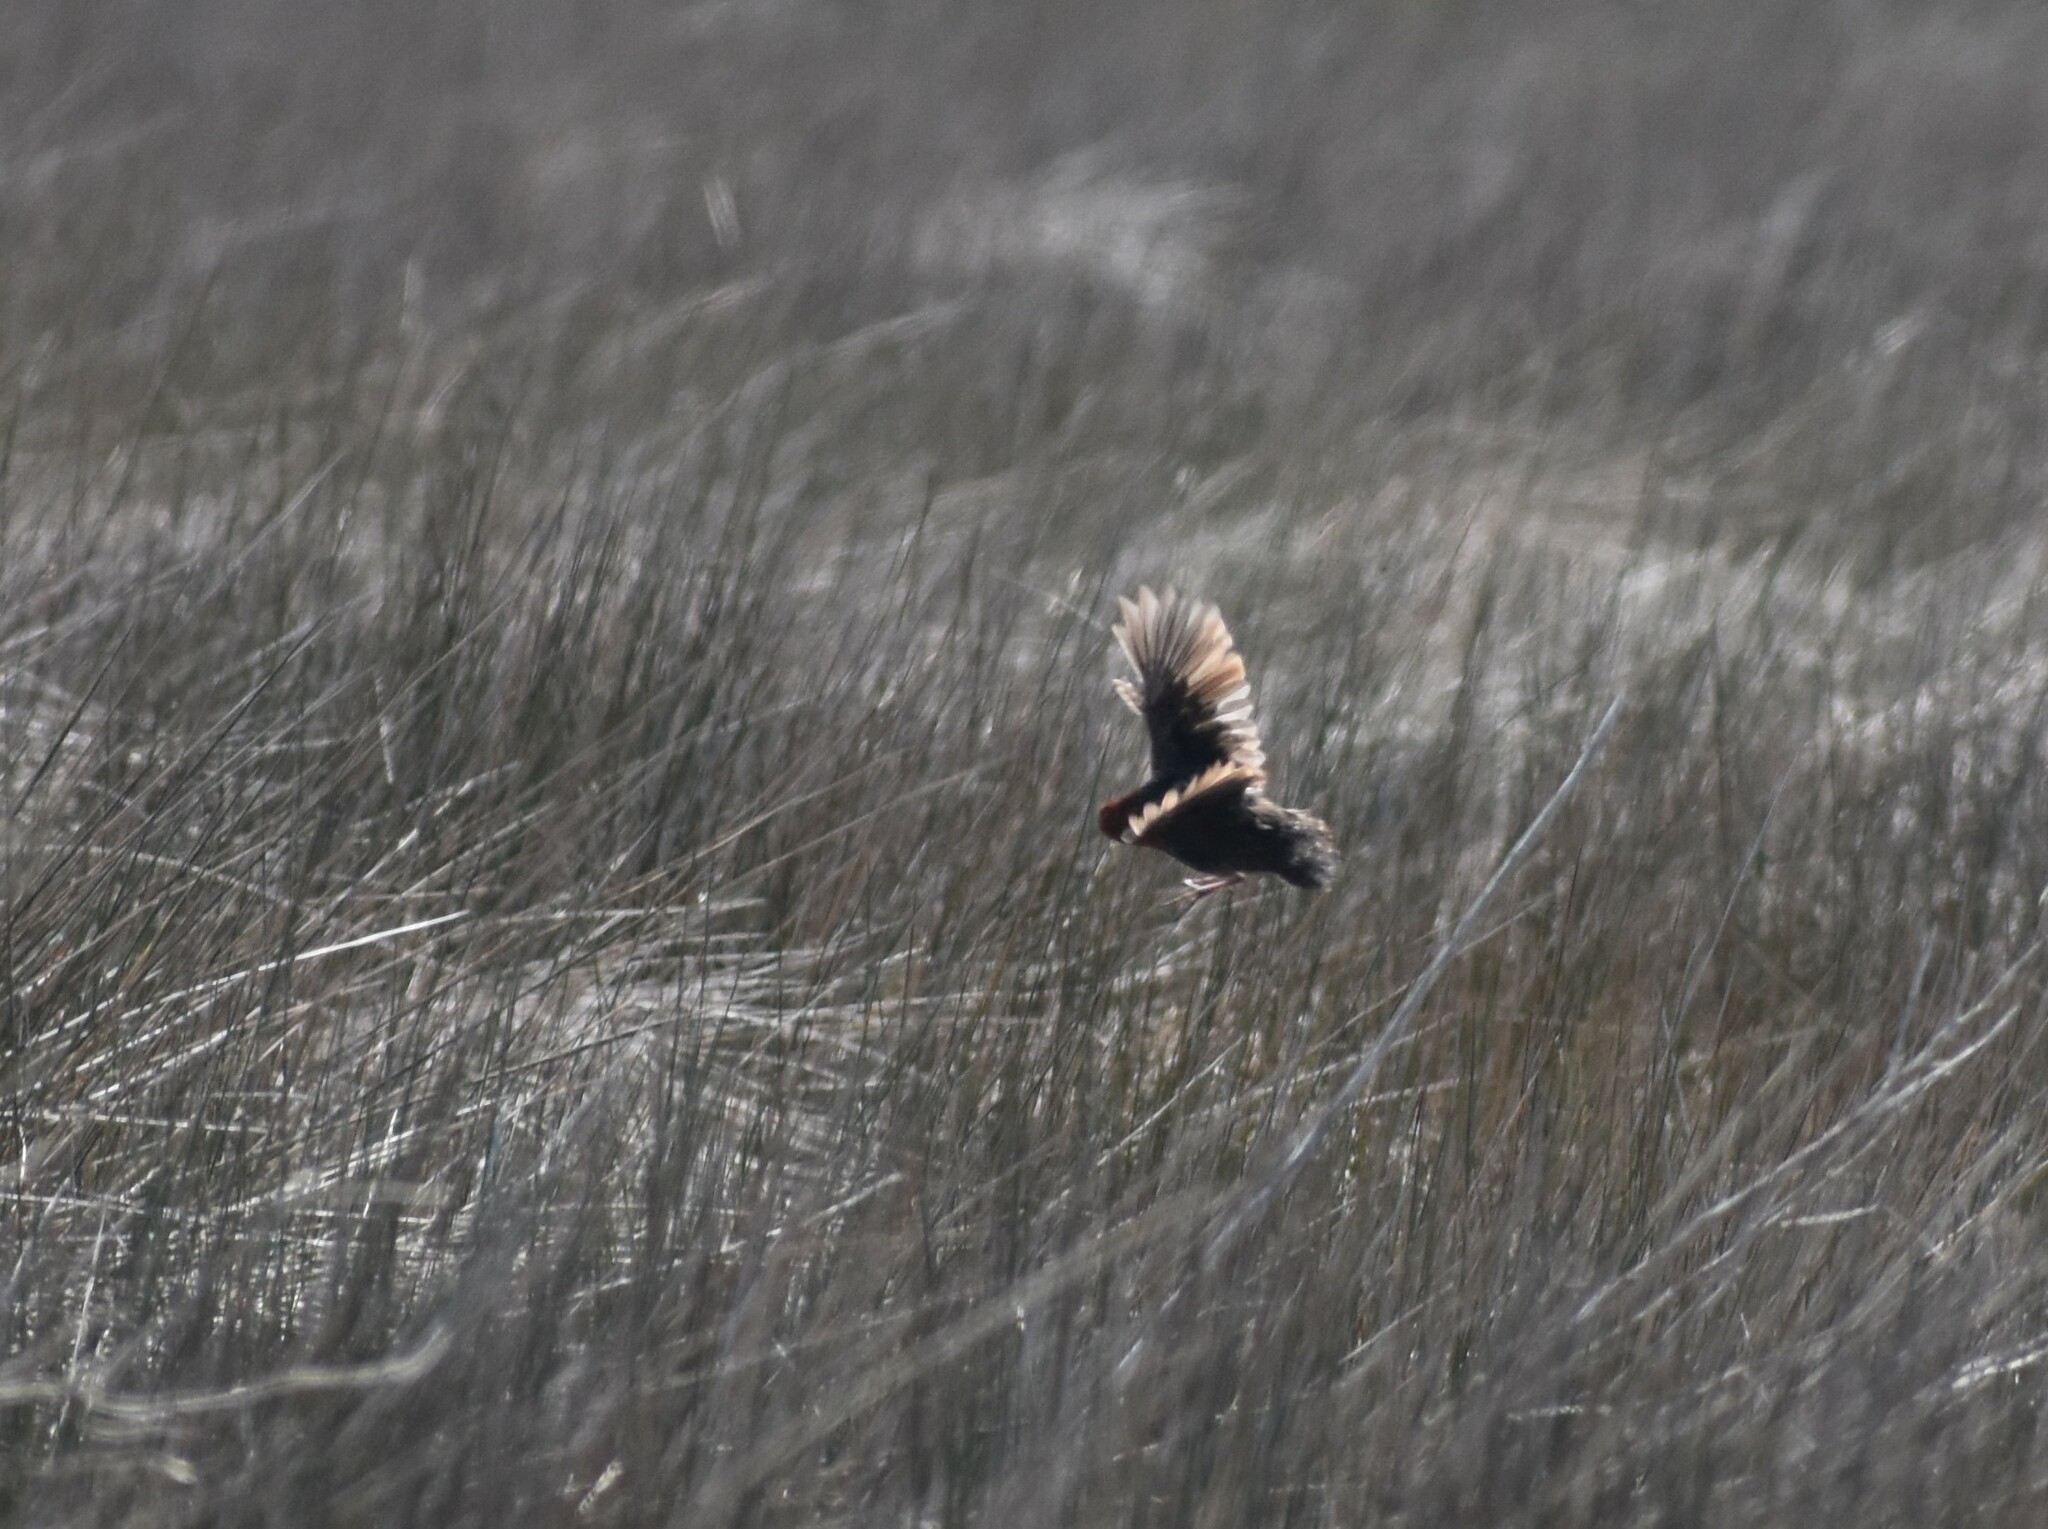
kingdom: Animalia
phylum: Chordata
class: Aves
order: Gruiformes
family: Rallidae
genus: Sarothrura
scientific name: Sarothrura rufa
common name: Red-chested flufftail
